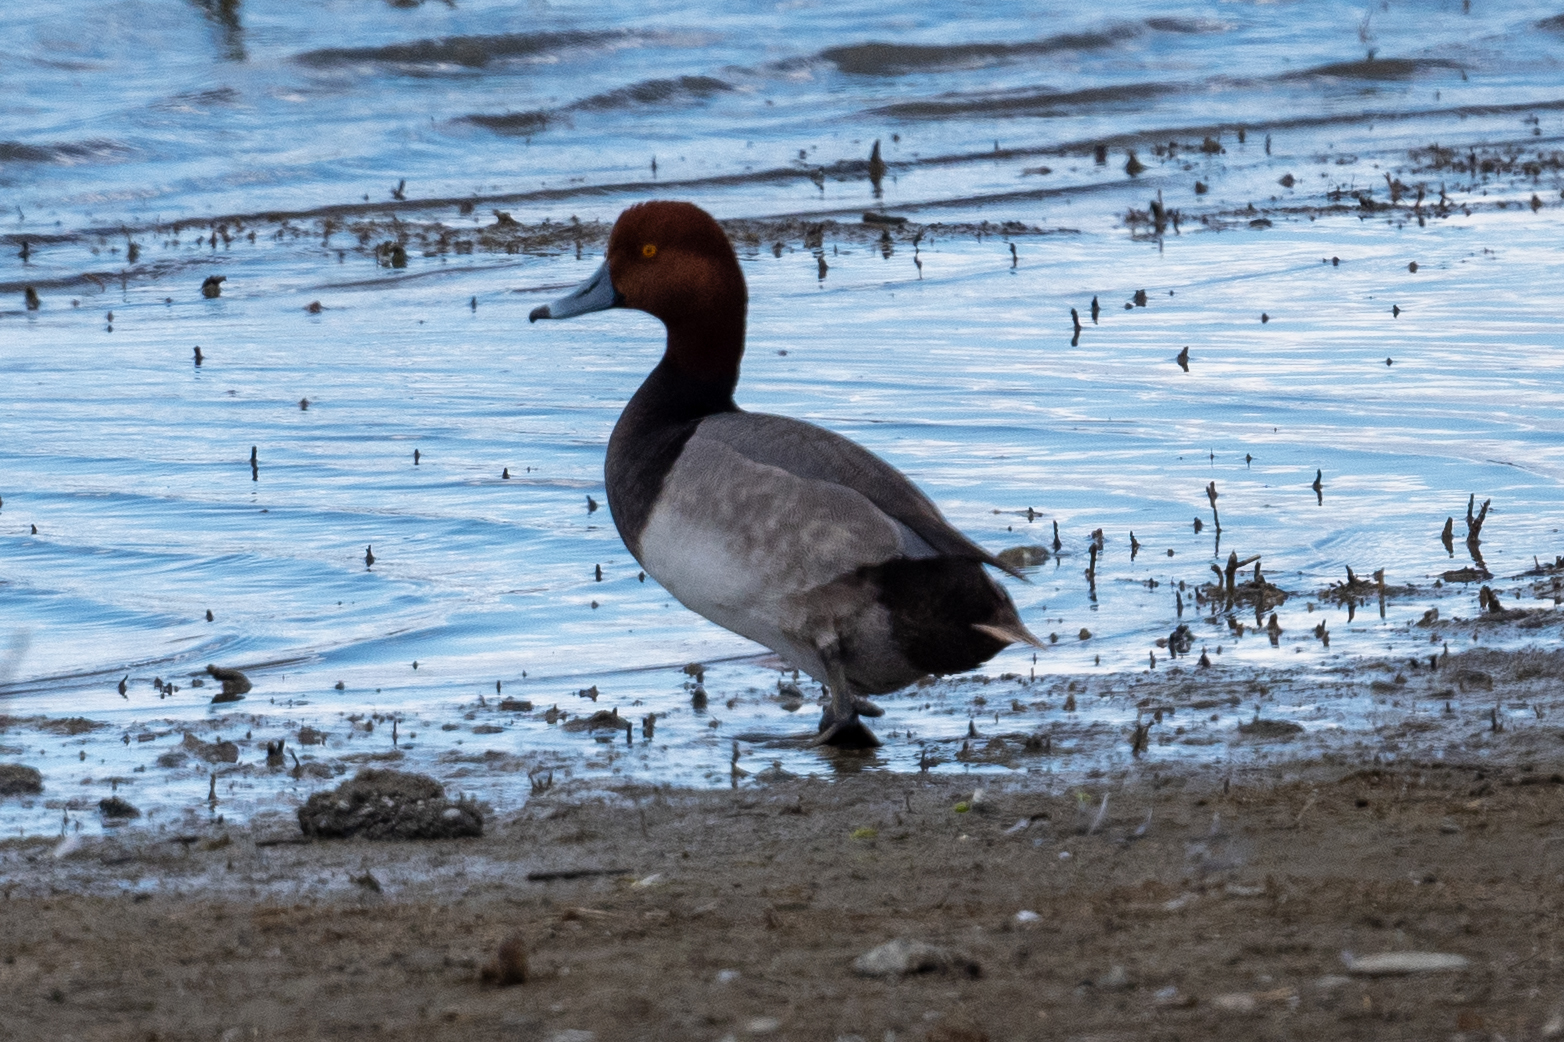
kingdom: Animalia
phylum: Chordata
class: Aves
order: Anseriformes
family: Anatidae
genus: Aythya
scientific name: Aythya americana
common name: Redhead
